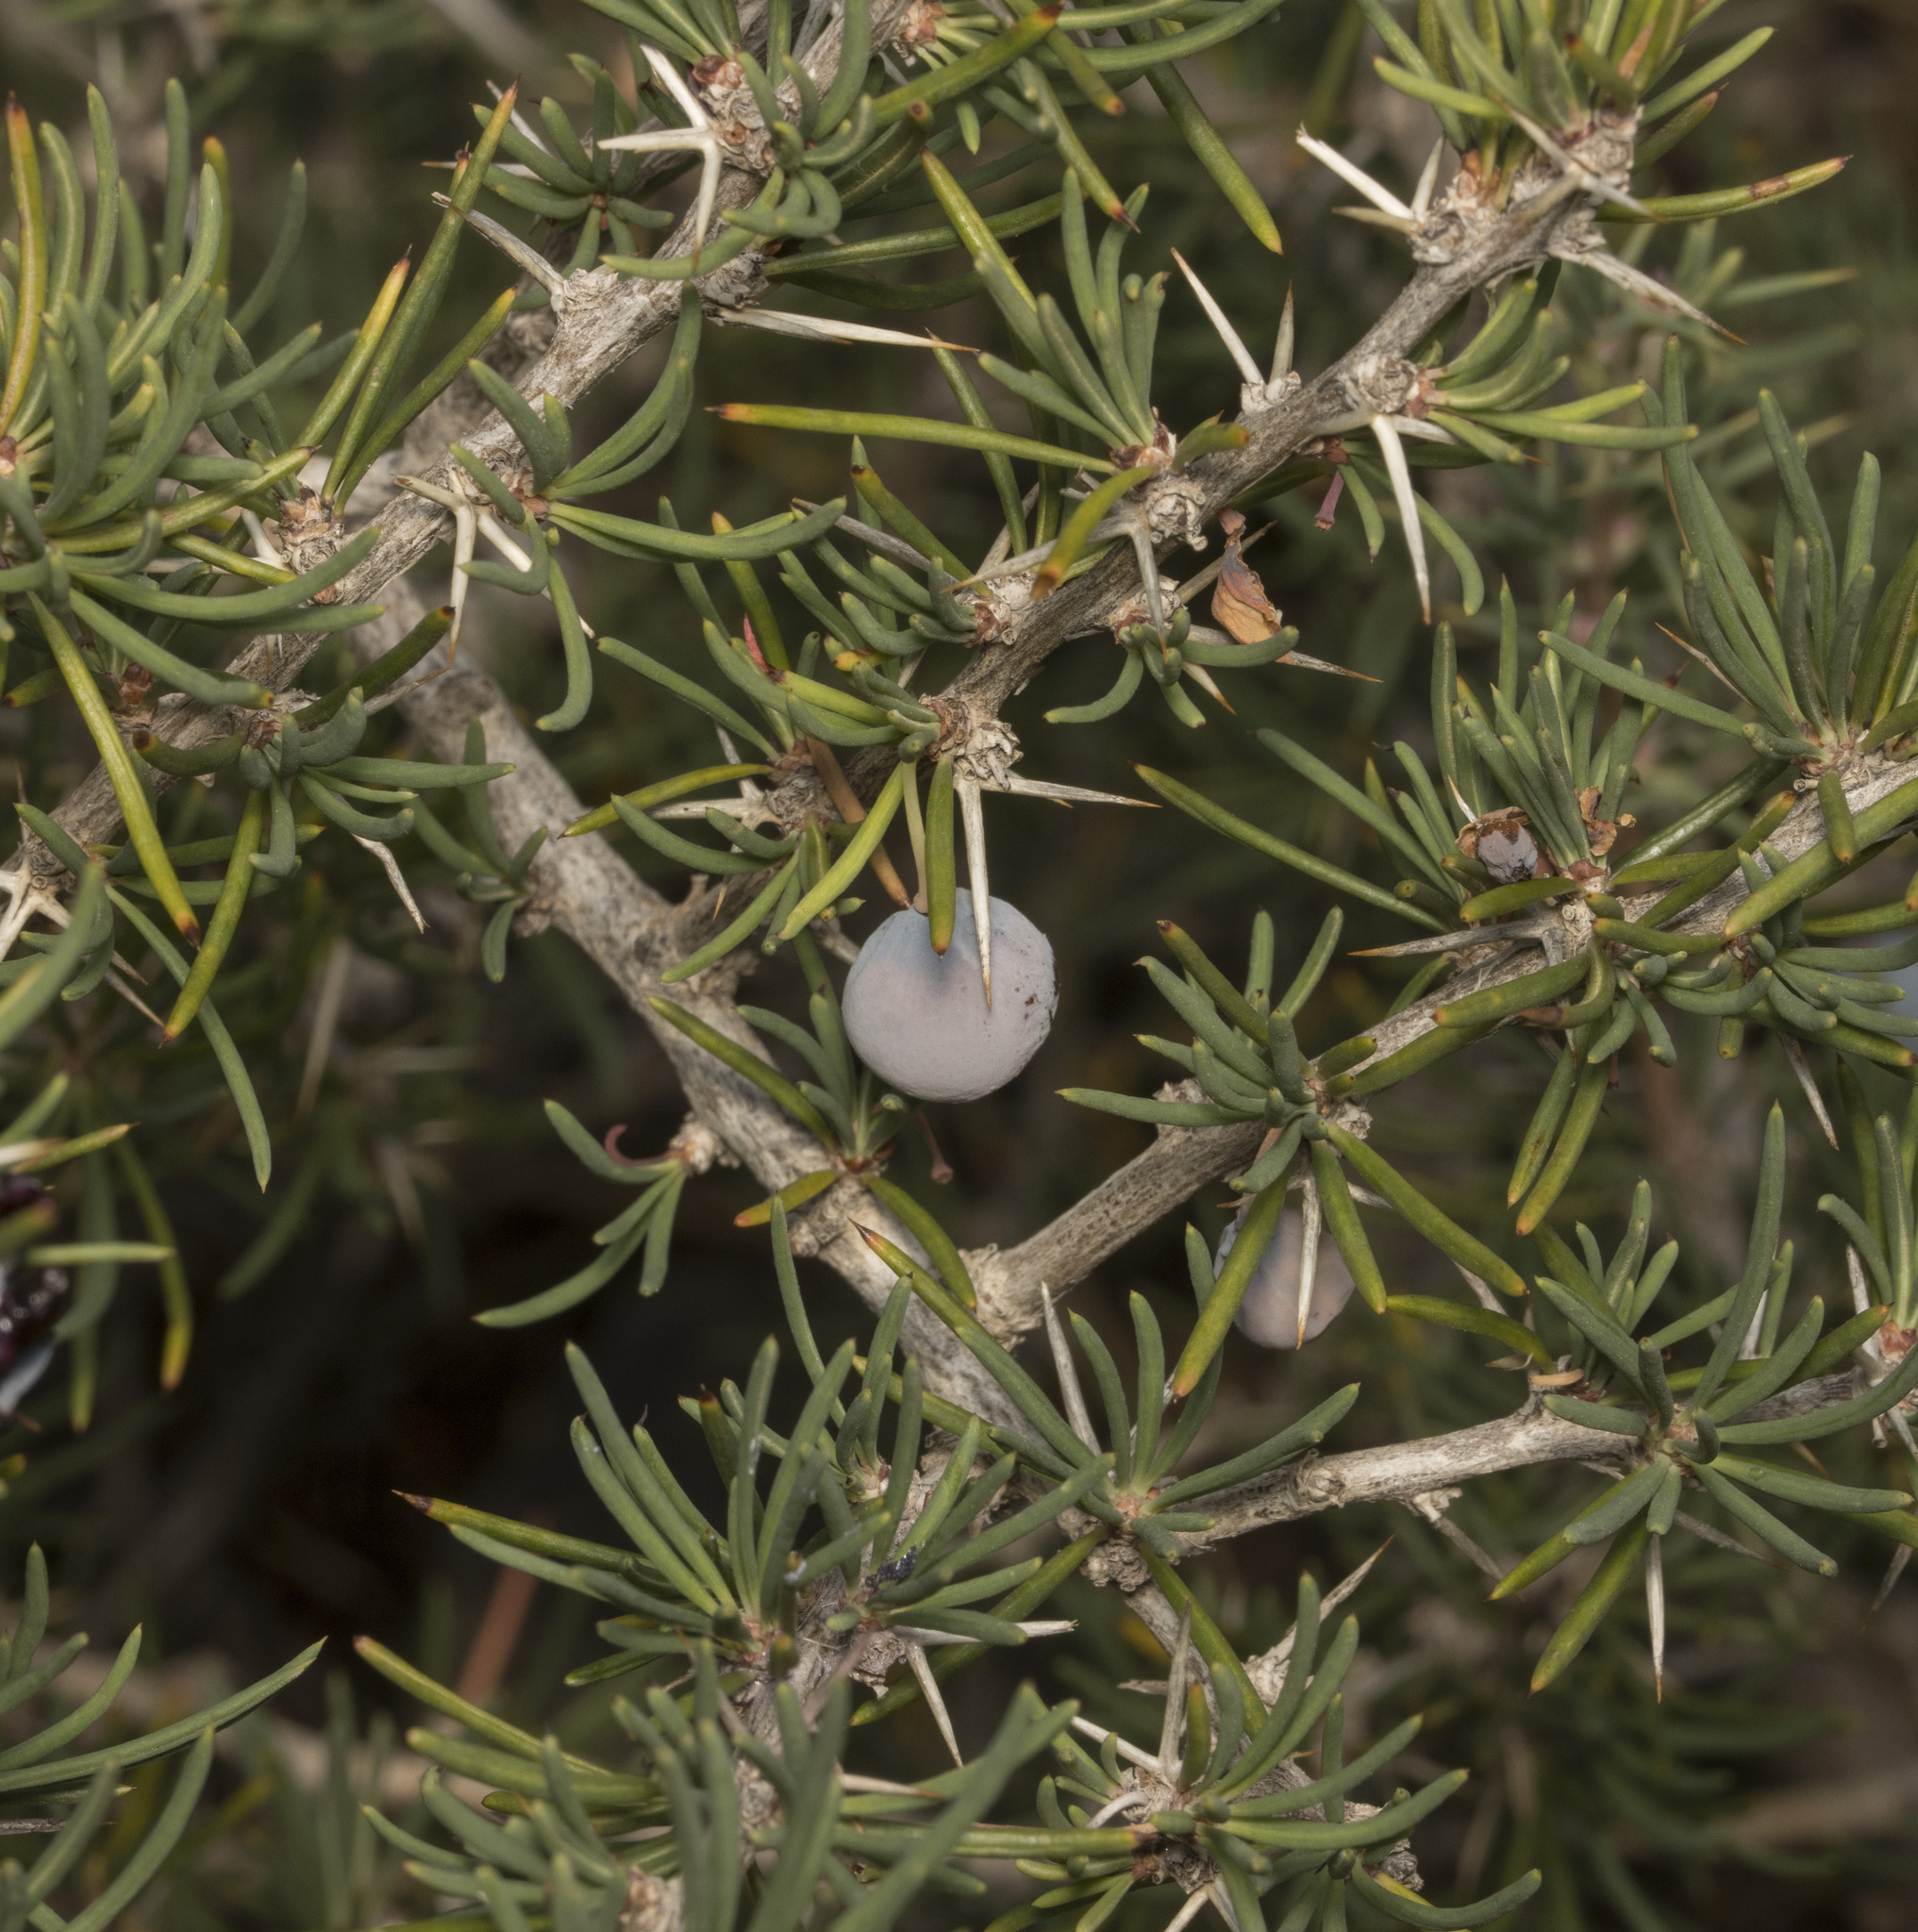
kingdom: Plantae
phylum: Tracheophyta
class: Magnoliopsida
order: Ranunculales
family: Berberidaceae
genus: Berberis
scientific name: Berberis empetrifolia
